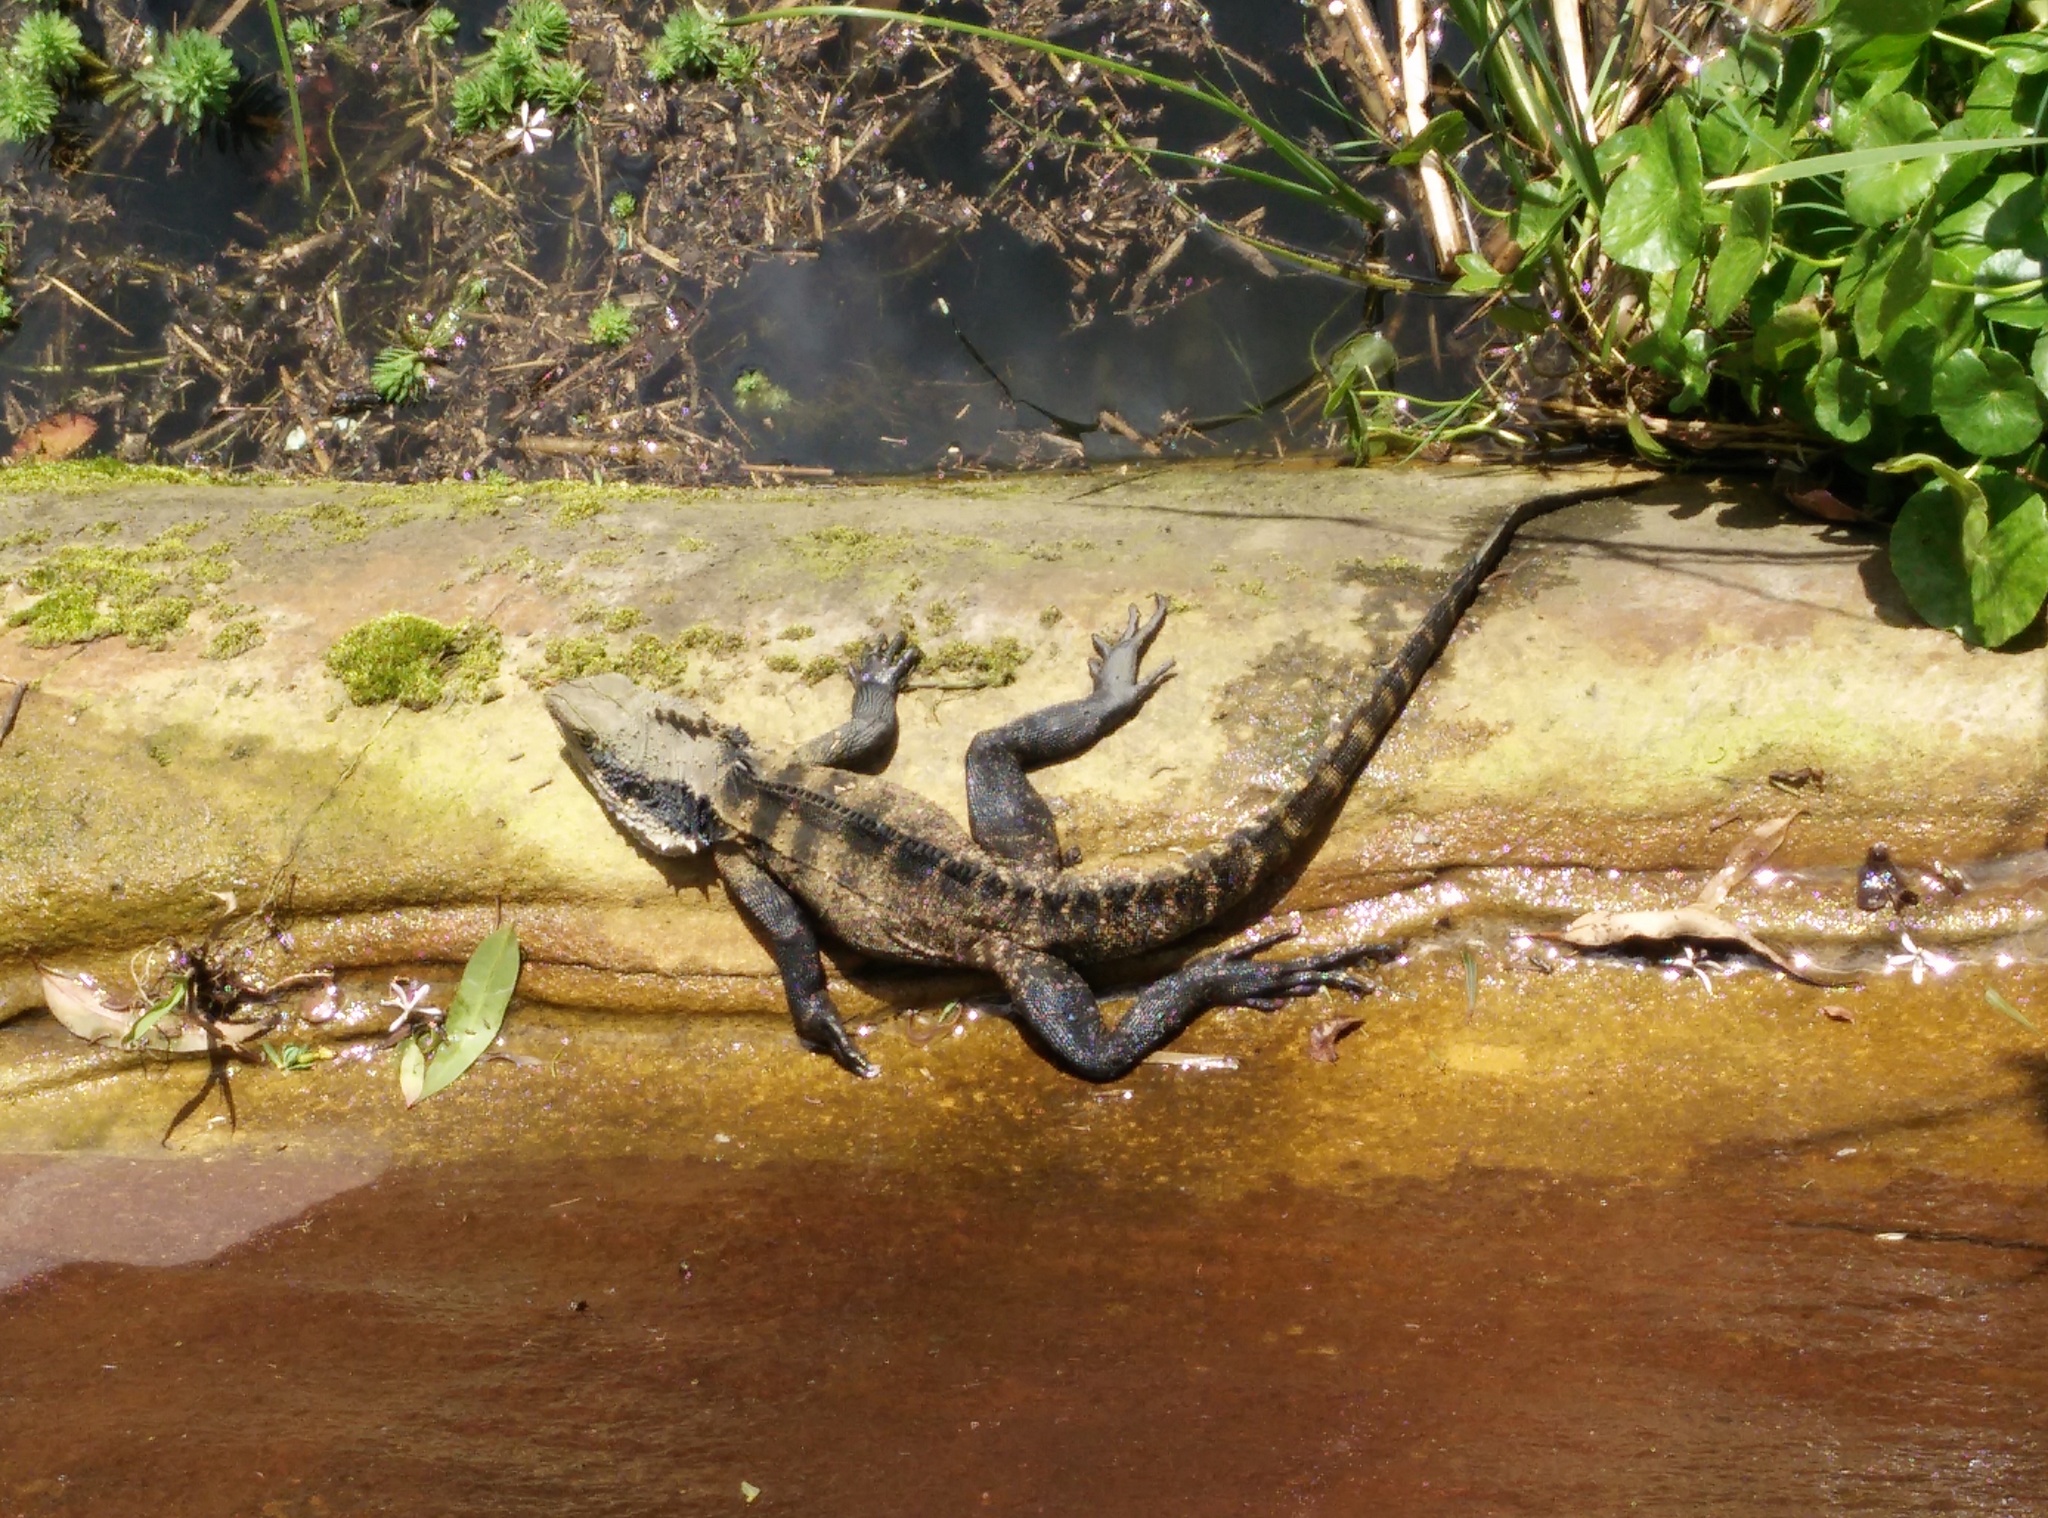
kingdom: Animalia
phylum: Chordata
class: Squamata
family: Agamidae
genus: Intellagama
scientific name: Intellagama lesueurii
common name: Eastern water dragon
